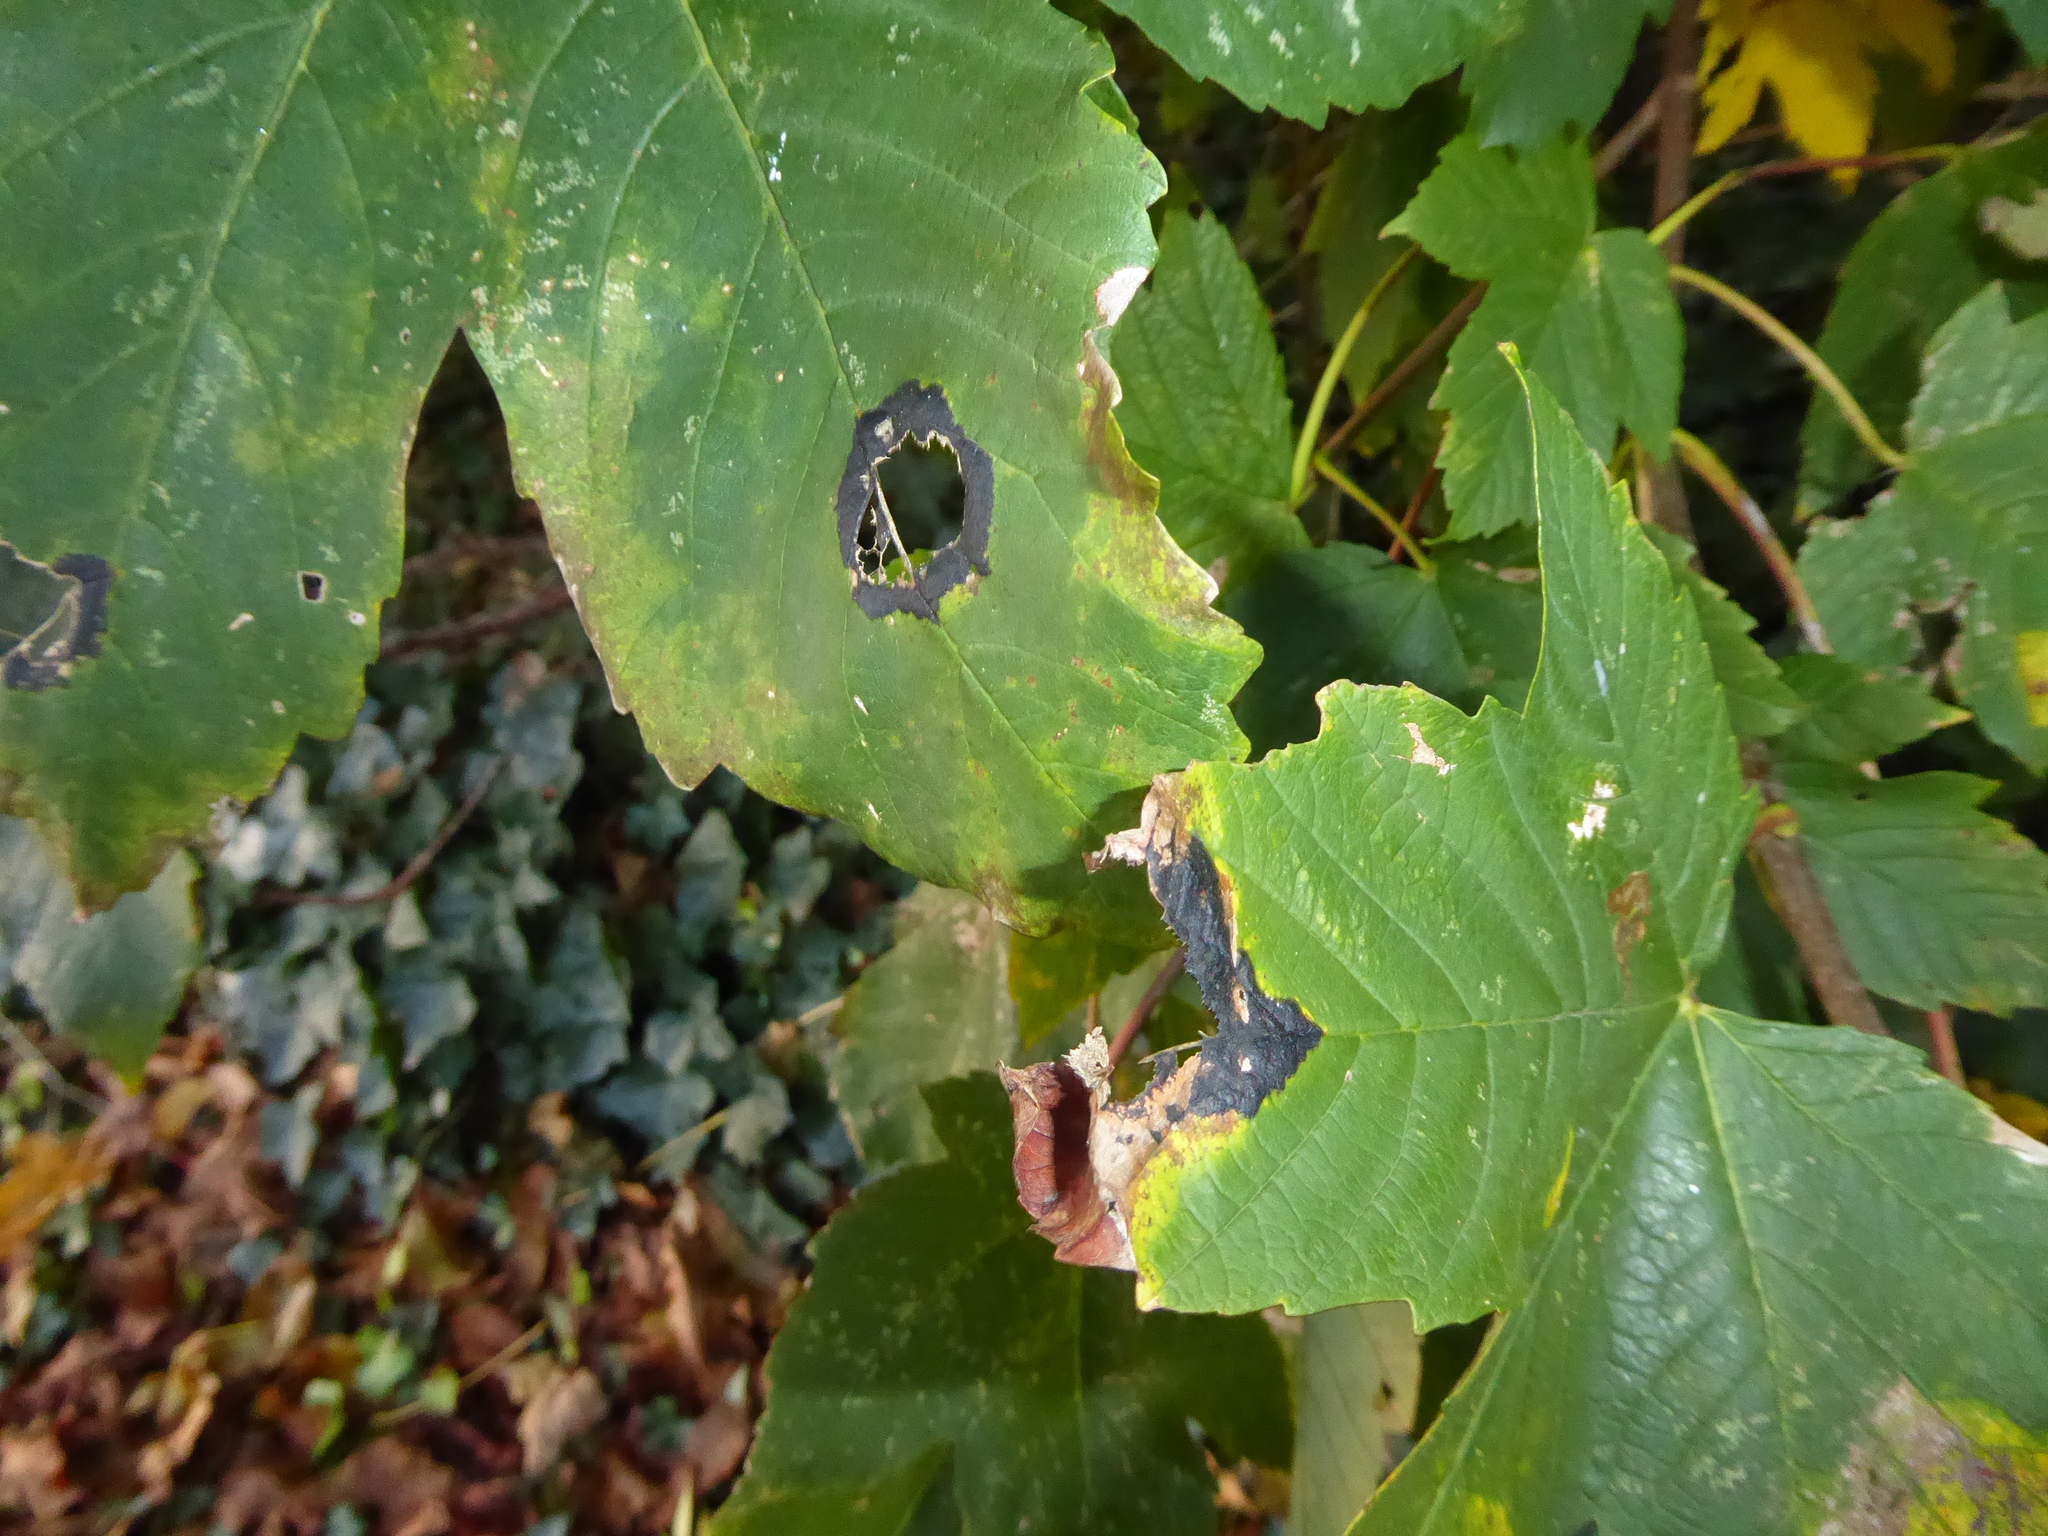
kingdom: Fungi
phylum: Ascomycota
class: Leotiomycetes
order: Rhytismatales
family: Rhytismataceae
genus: Rhytisma
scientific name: Rhytisma acerinum
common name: European tar spot
